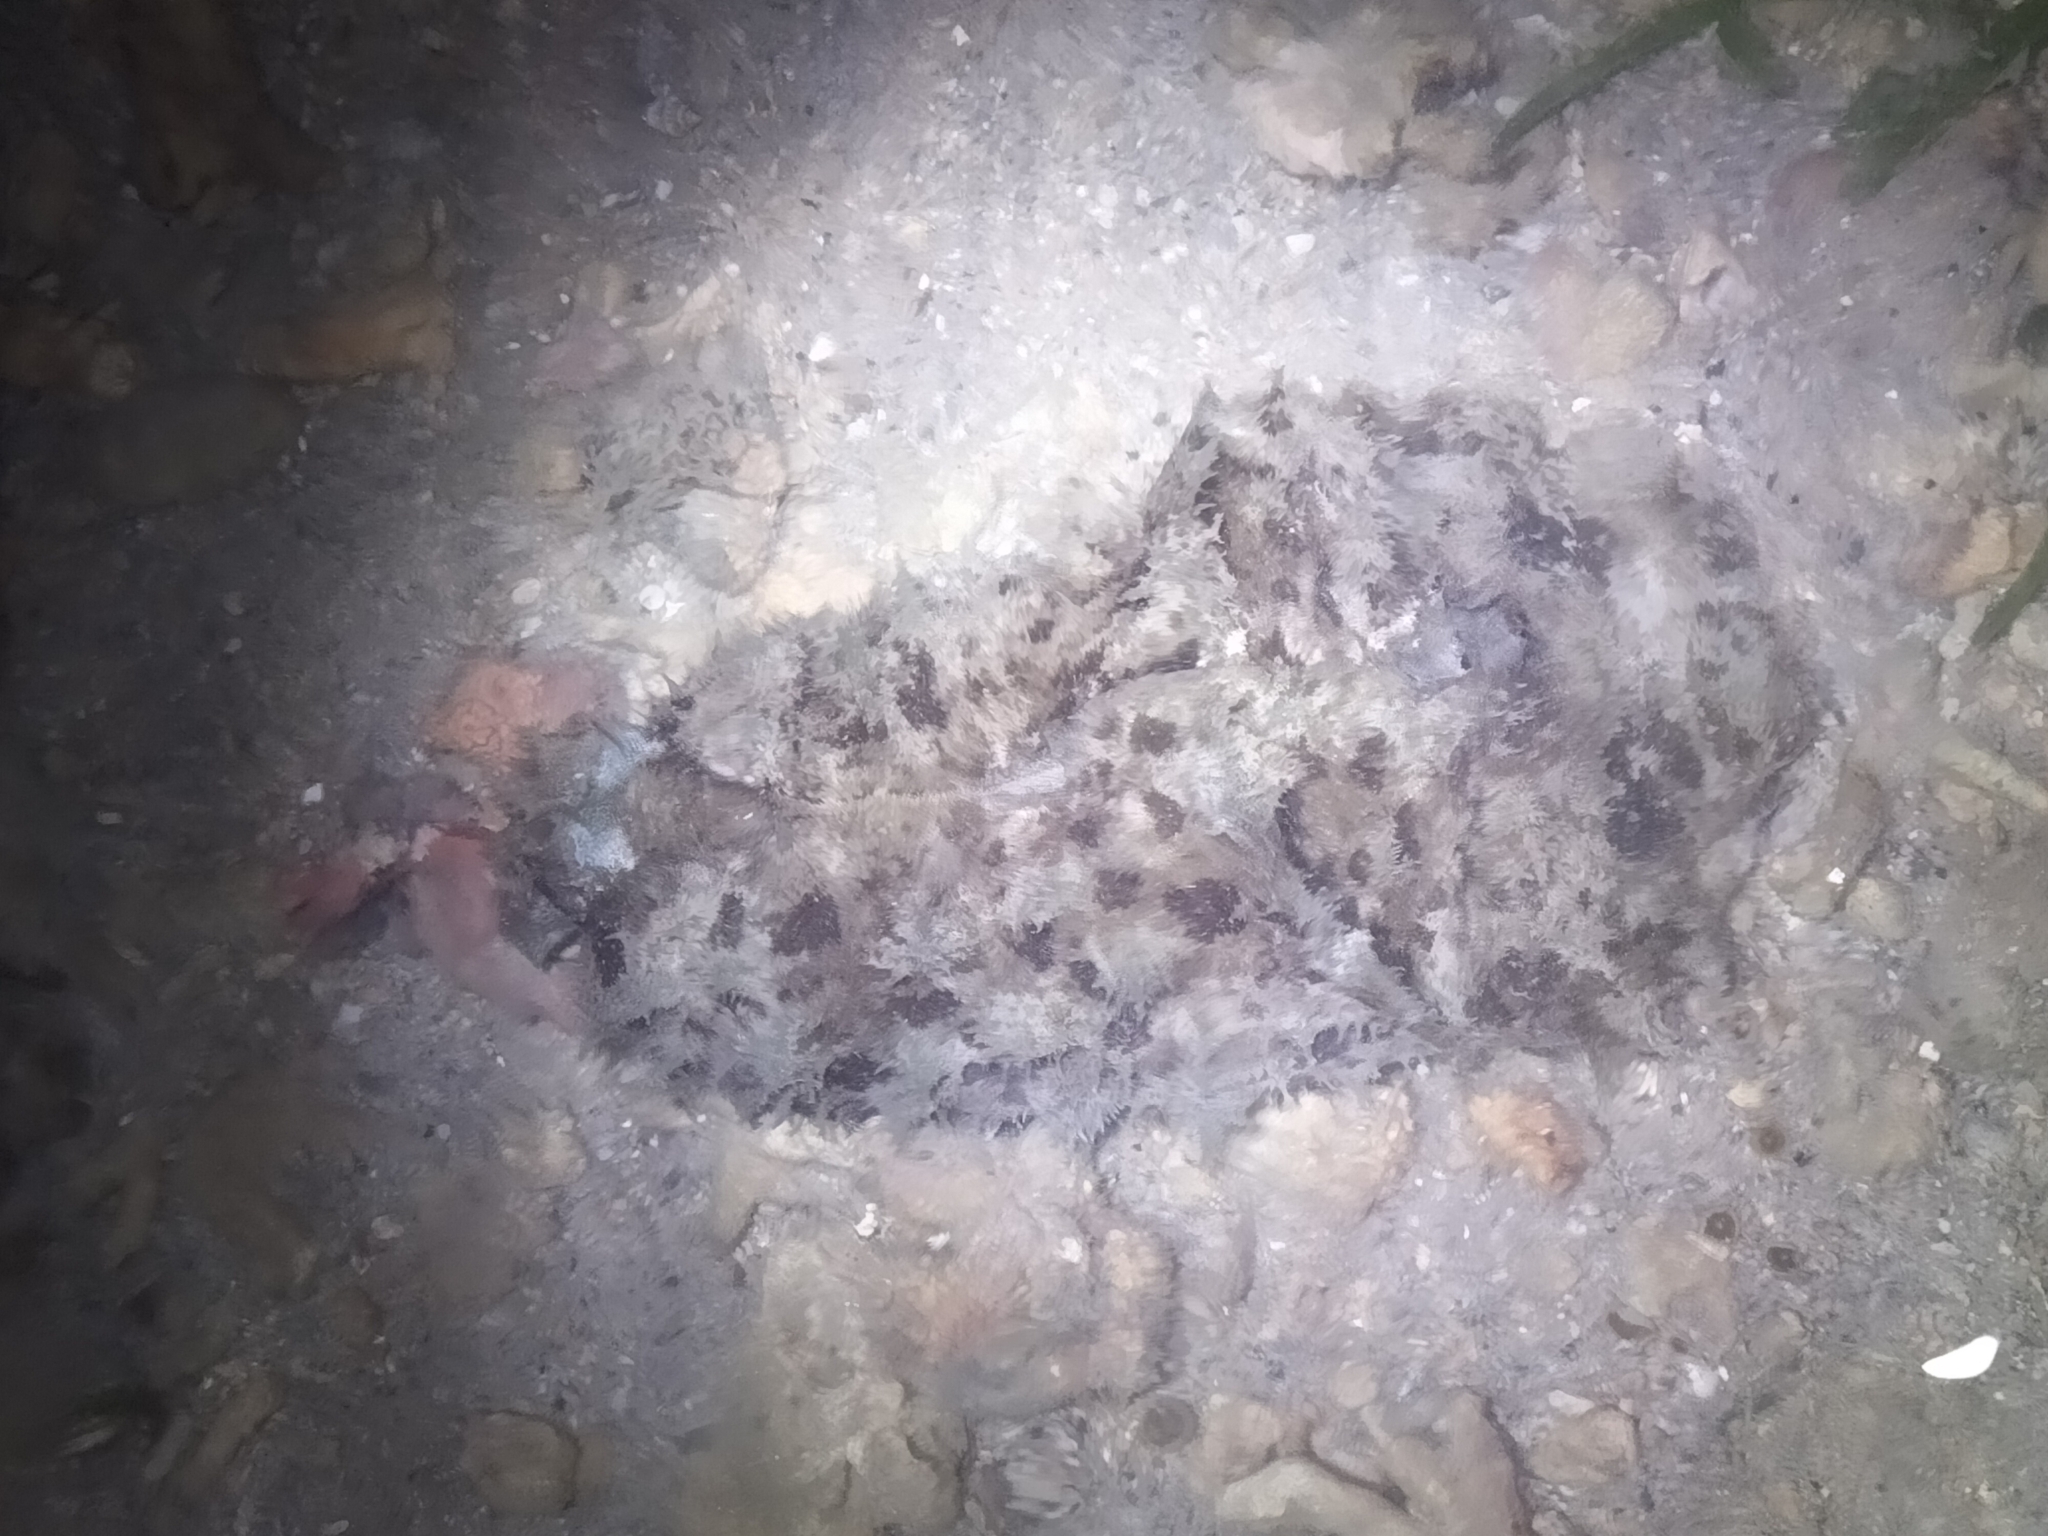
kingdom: Animalia
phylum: Mollusca
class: Gastropoda
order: Aplysiida
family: Aplysiidae
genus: Dolabella
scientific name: Dolabella auricularia
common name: Blunt-end seahare
